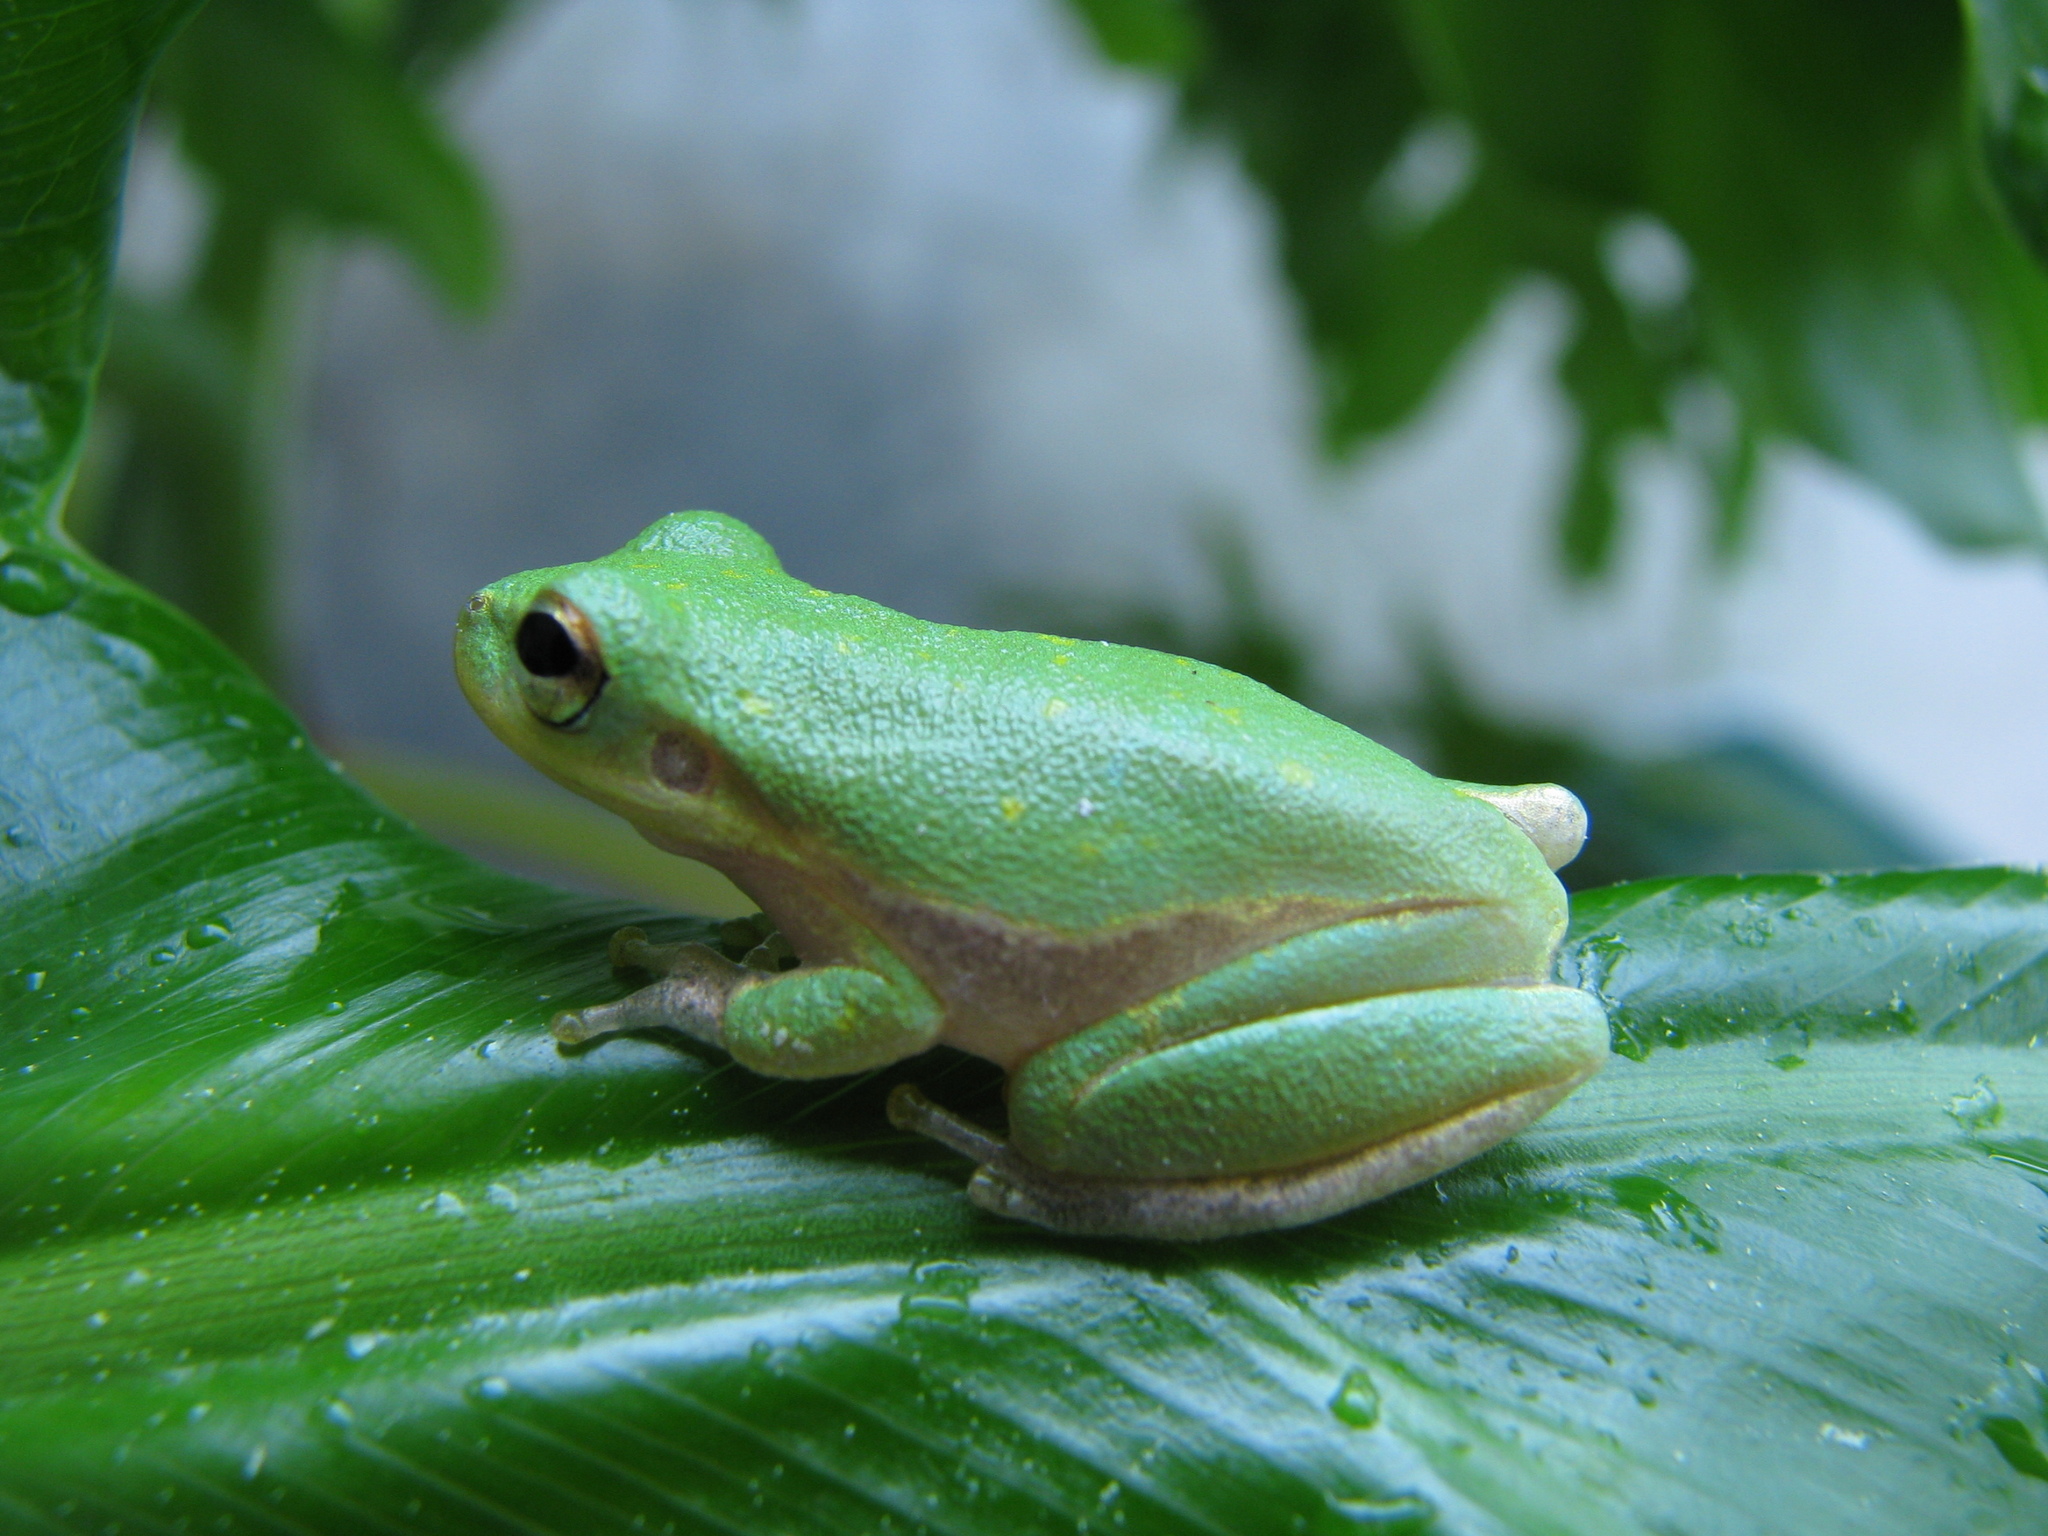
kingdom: Animalia
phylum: Chordata
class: Amphibia
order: Anura
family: Hylidae
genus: Dryophytes
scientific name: Dryophytes squirellus
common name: Squirrel treefrog
